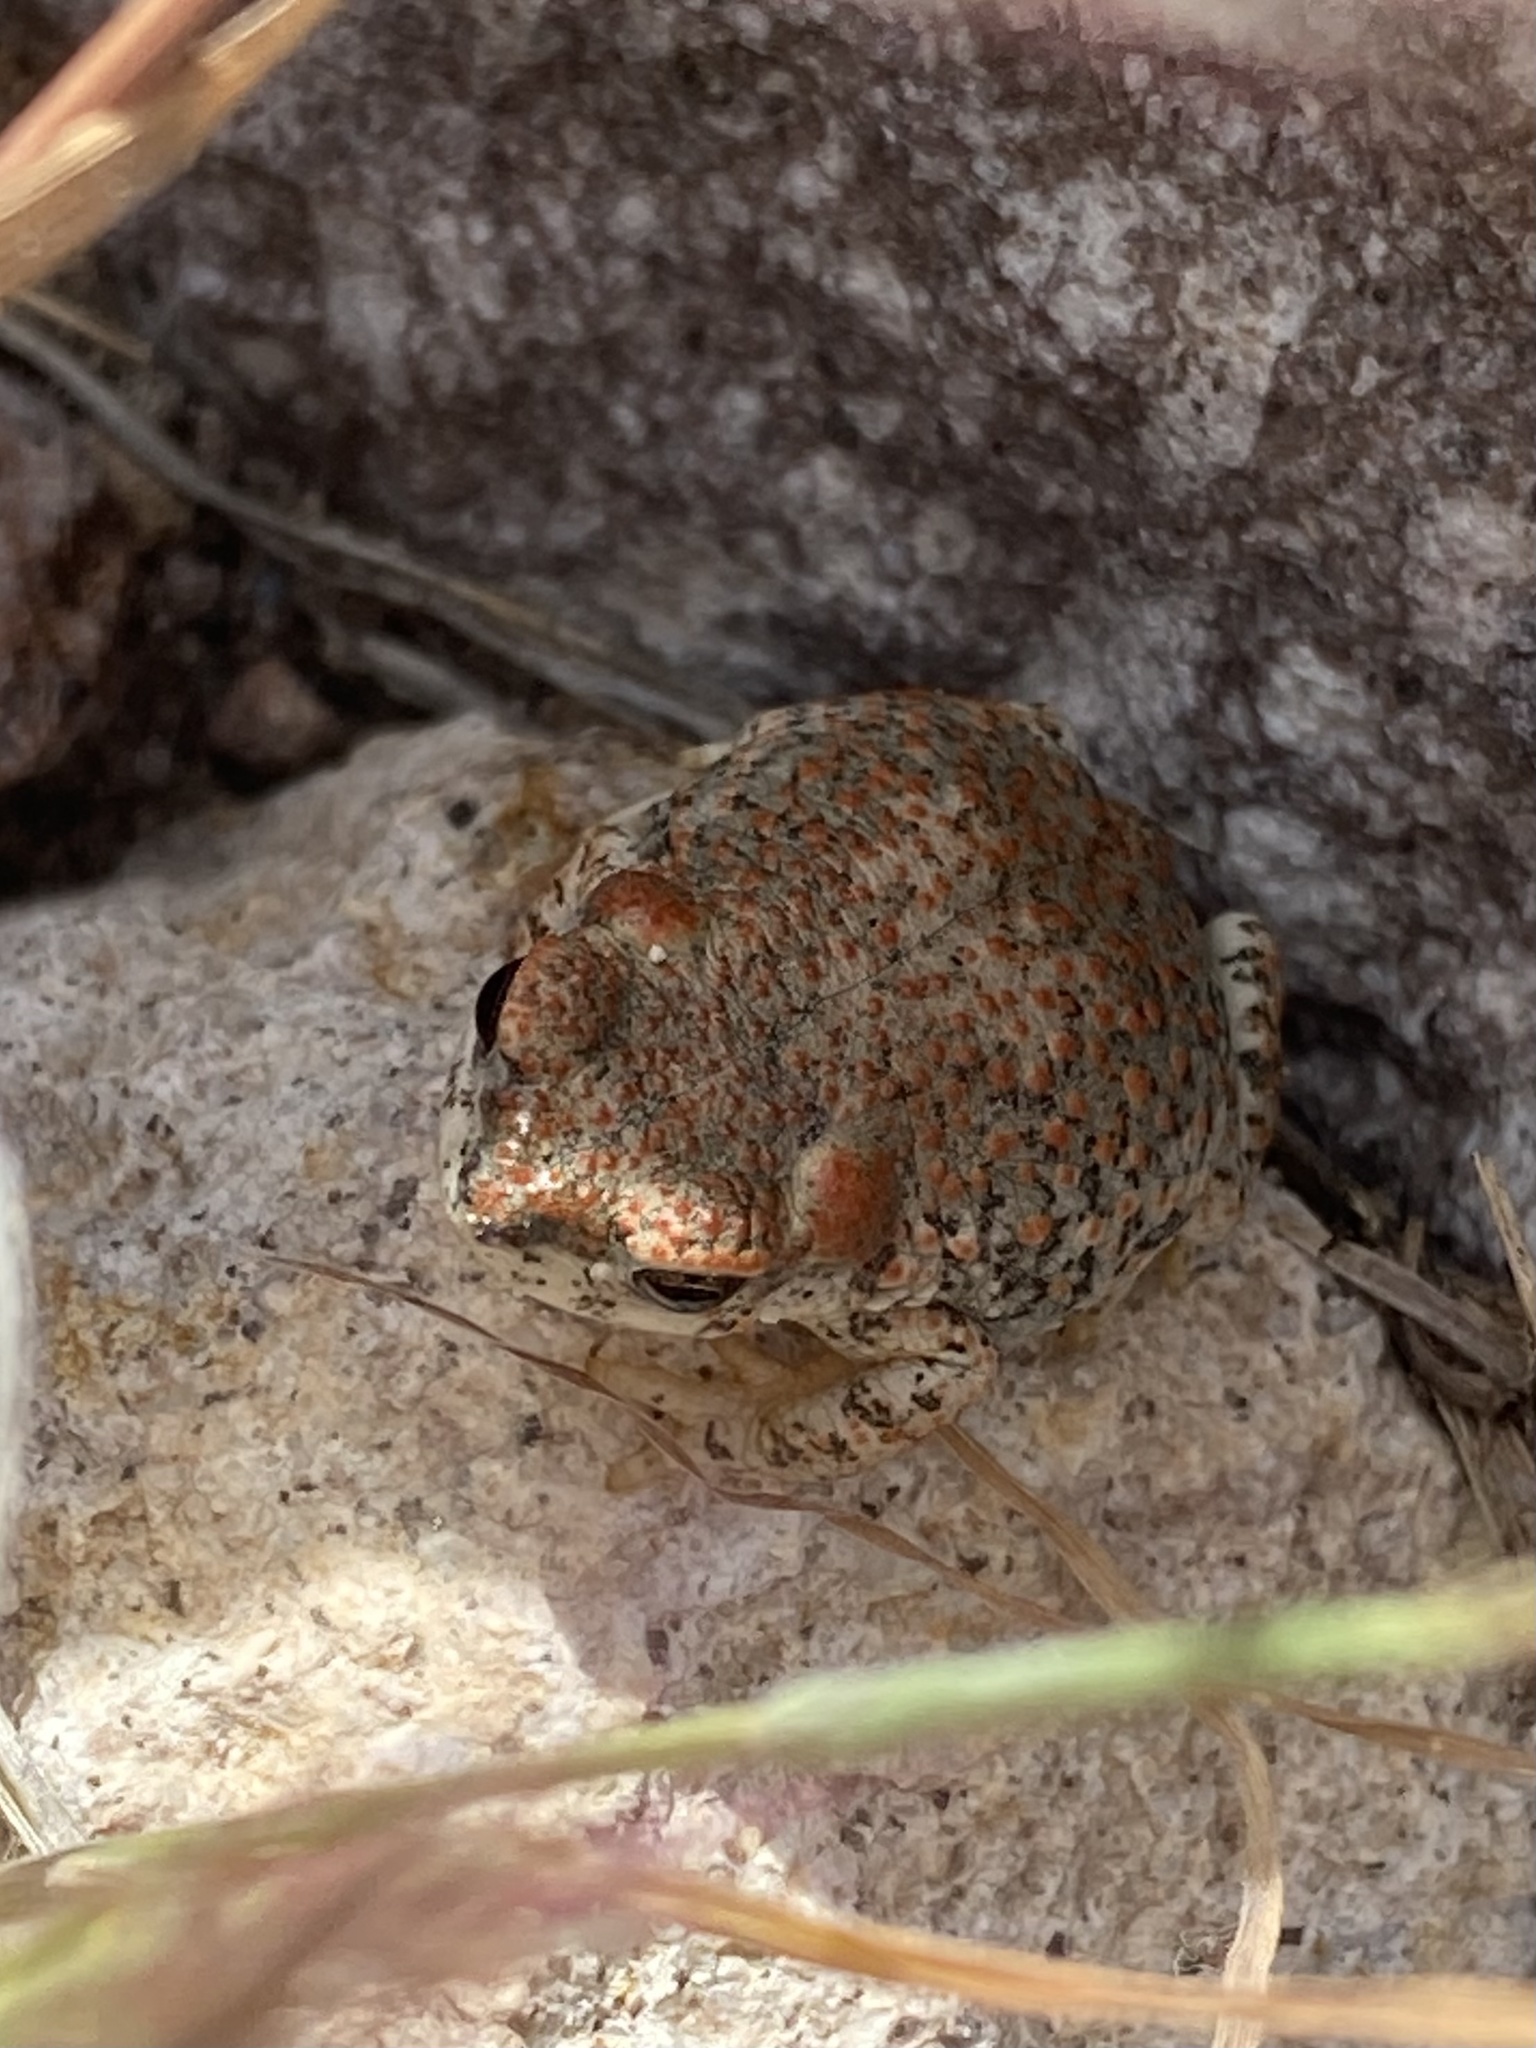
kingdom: Animalia
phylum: Chordata
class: Amphibia
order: Anura
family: Bufonidae
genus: Anaxyrus
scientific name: Anaxyrus punctatus
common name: Red-spotted toad
